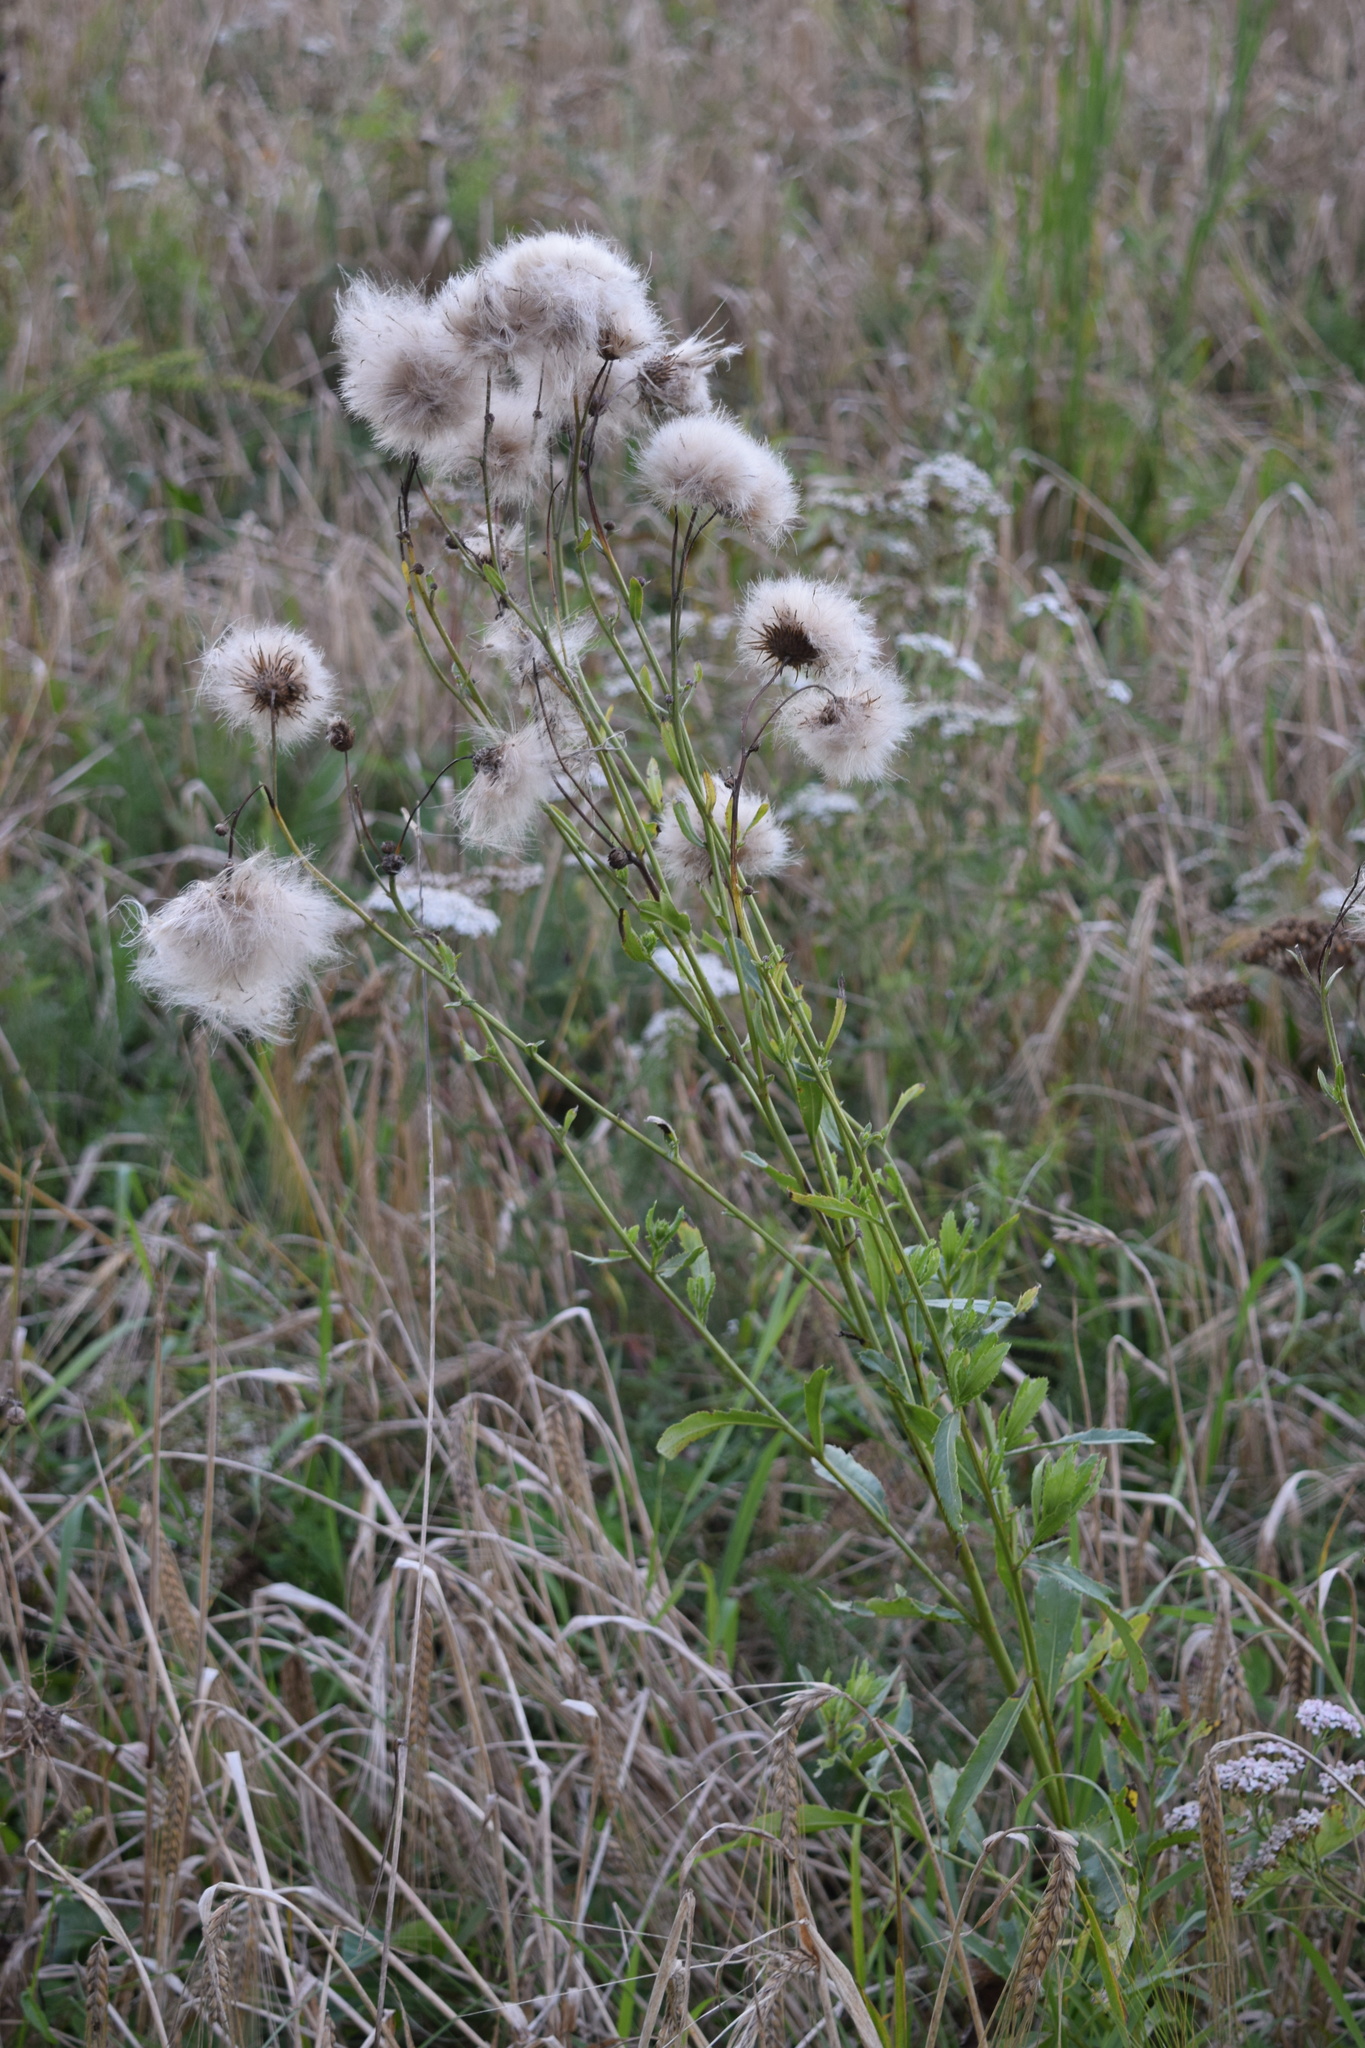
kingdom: Plantae
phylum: Tracheophyta
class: Magnoliopsida
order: Asterales
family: Asteraceae
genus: Cirsium
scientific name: Cirsium arvense
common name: Creeping thistle
